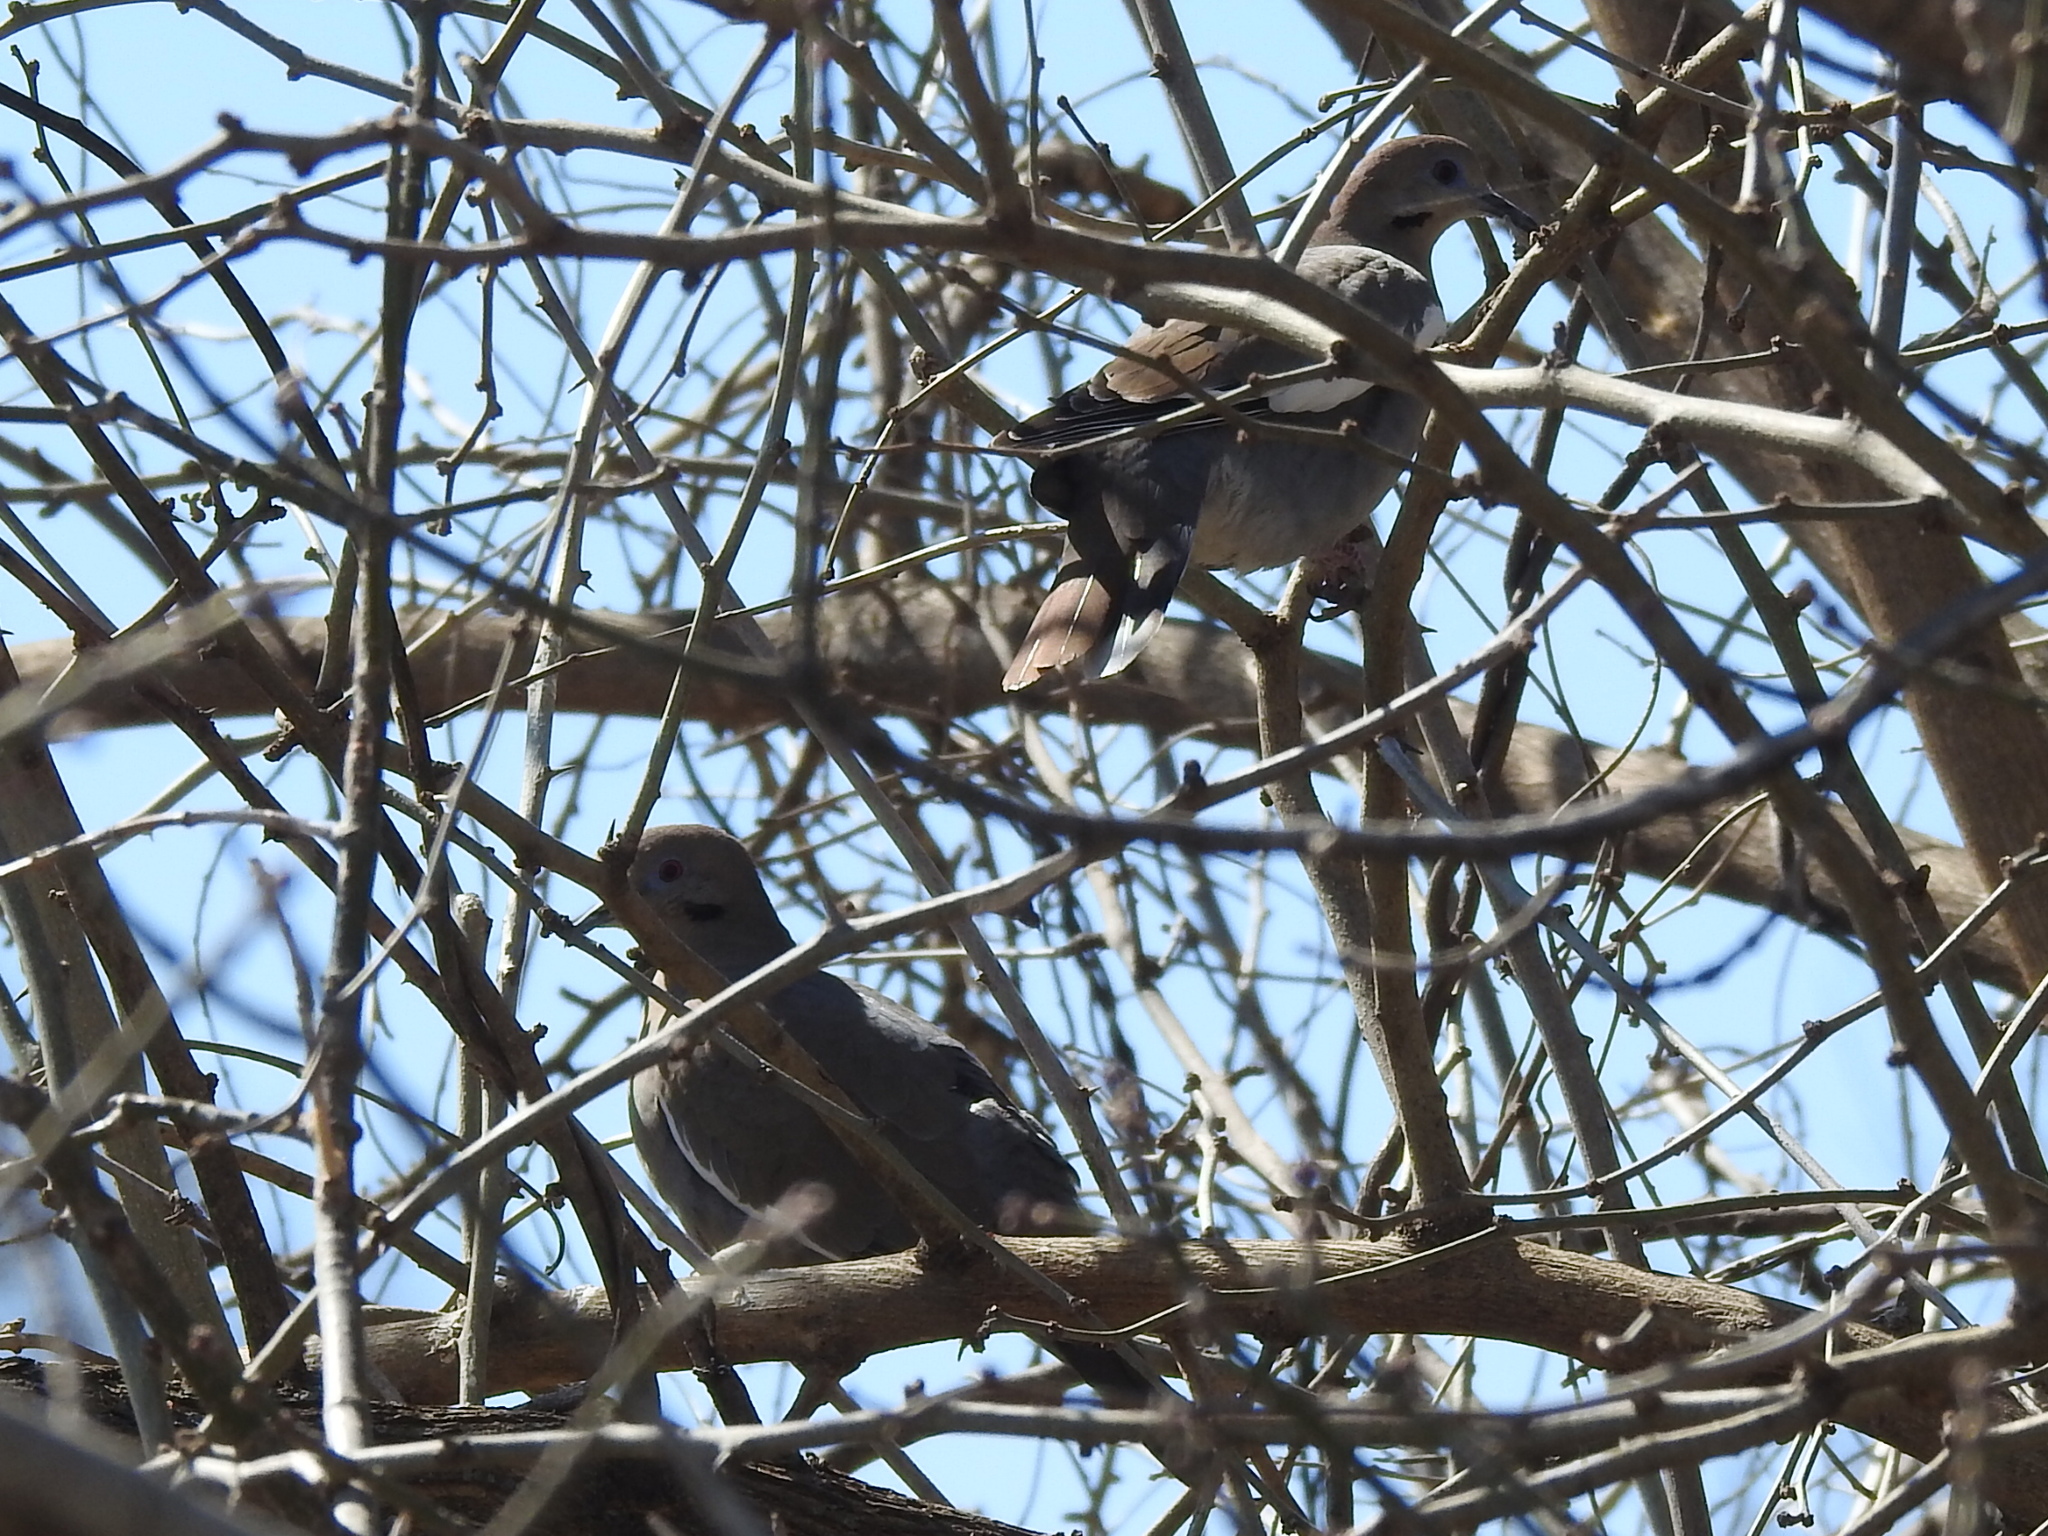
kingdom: Animalia
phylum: Chordata
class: Aves
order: Columbiformes
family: Columbidae
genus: Zenaida
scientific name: Zenaida asiatica
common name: White-winged dove
